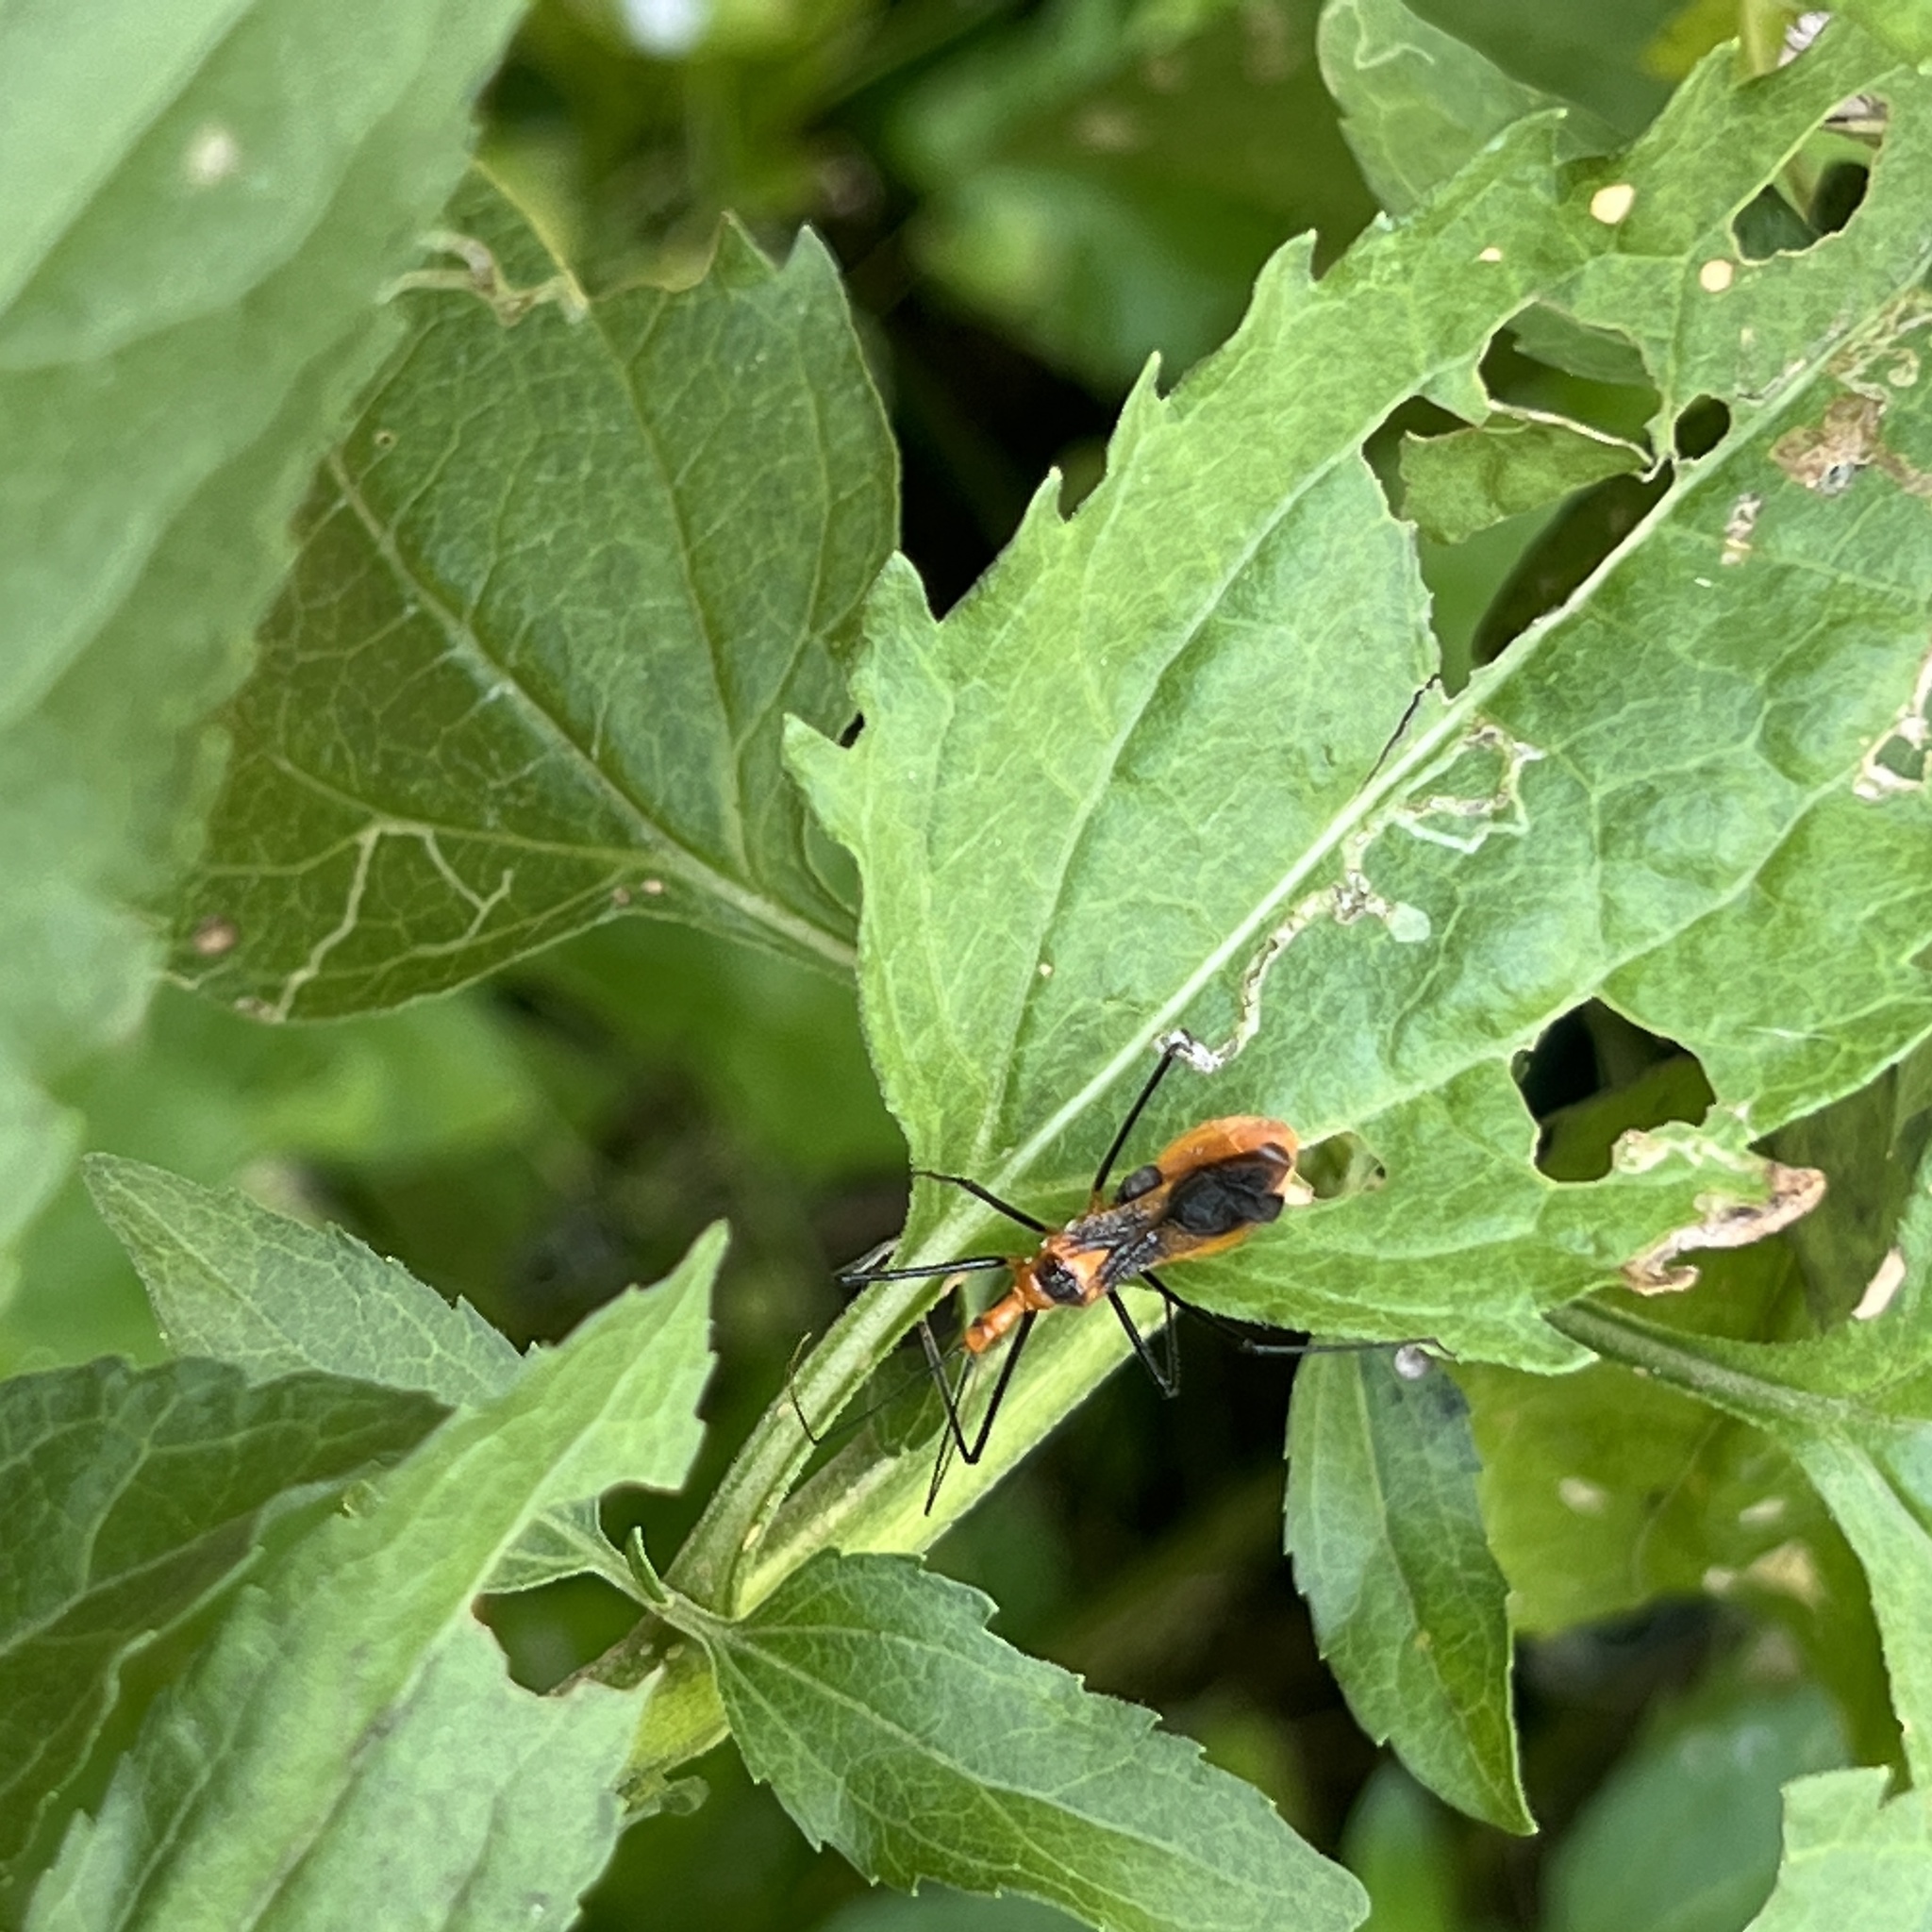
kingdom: Animalia
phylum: Arthropoda
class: Insecta
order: Hemiptera
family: Reduviidae
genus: Zelus
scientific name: Zelus longipes
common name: Milkweed assassin bug
